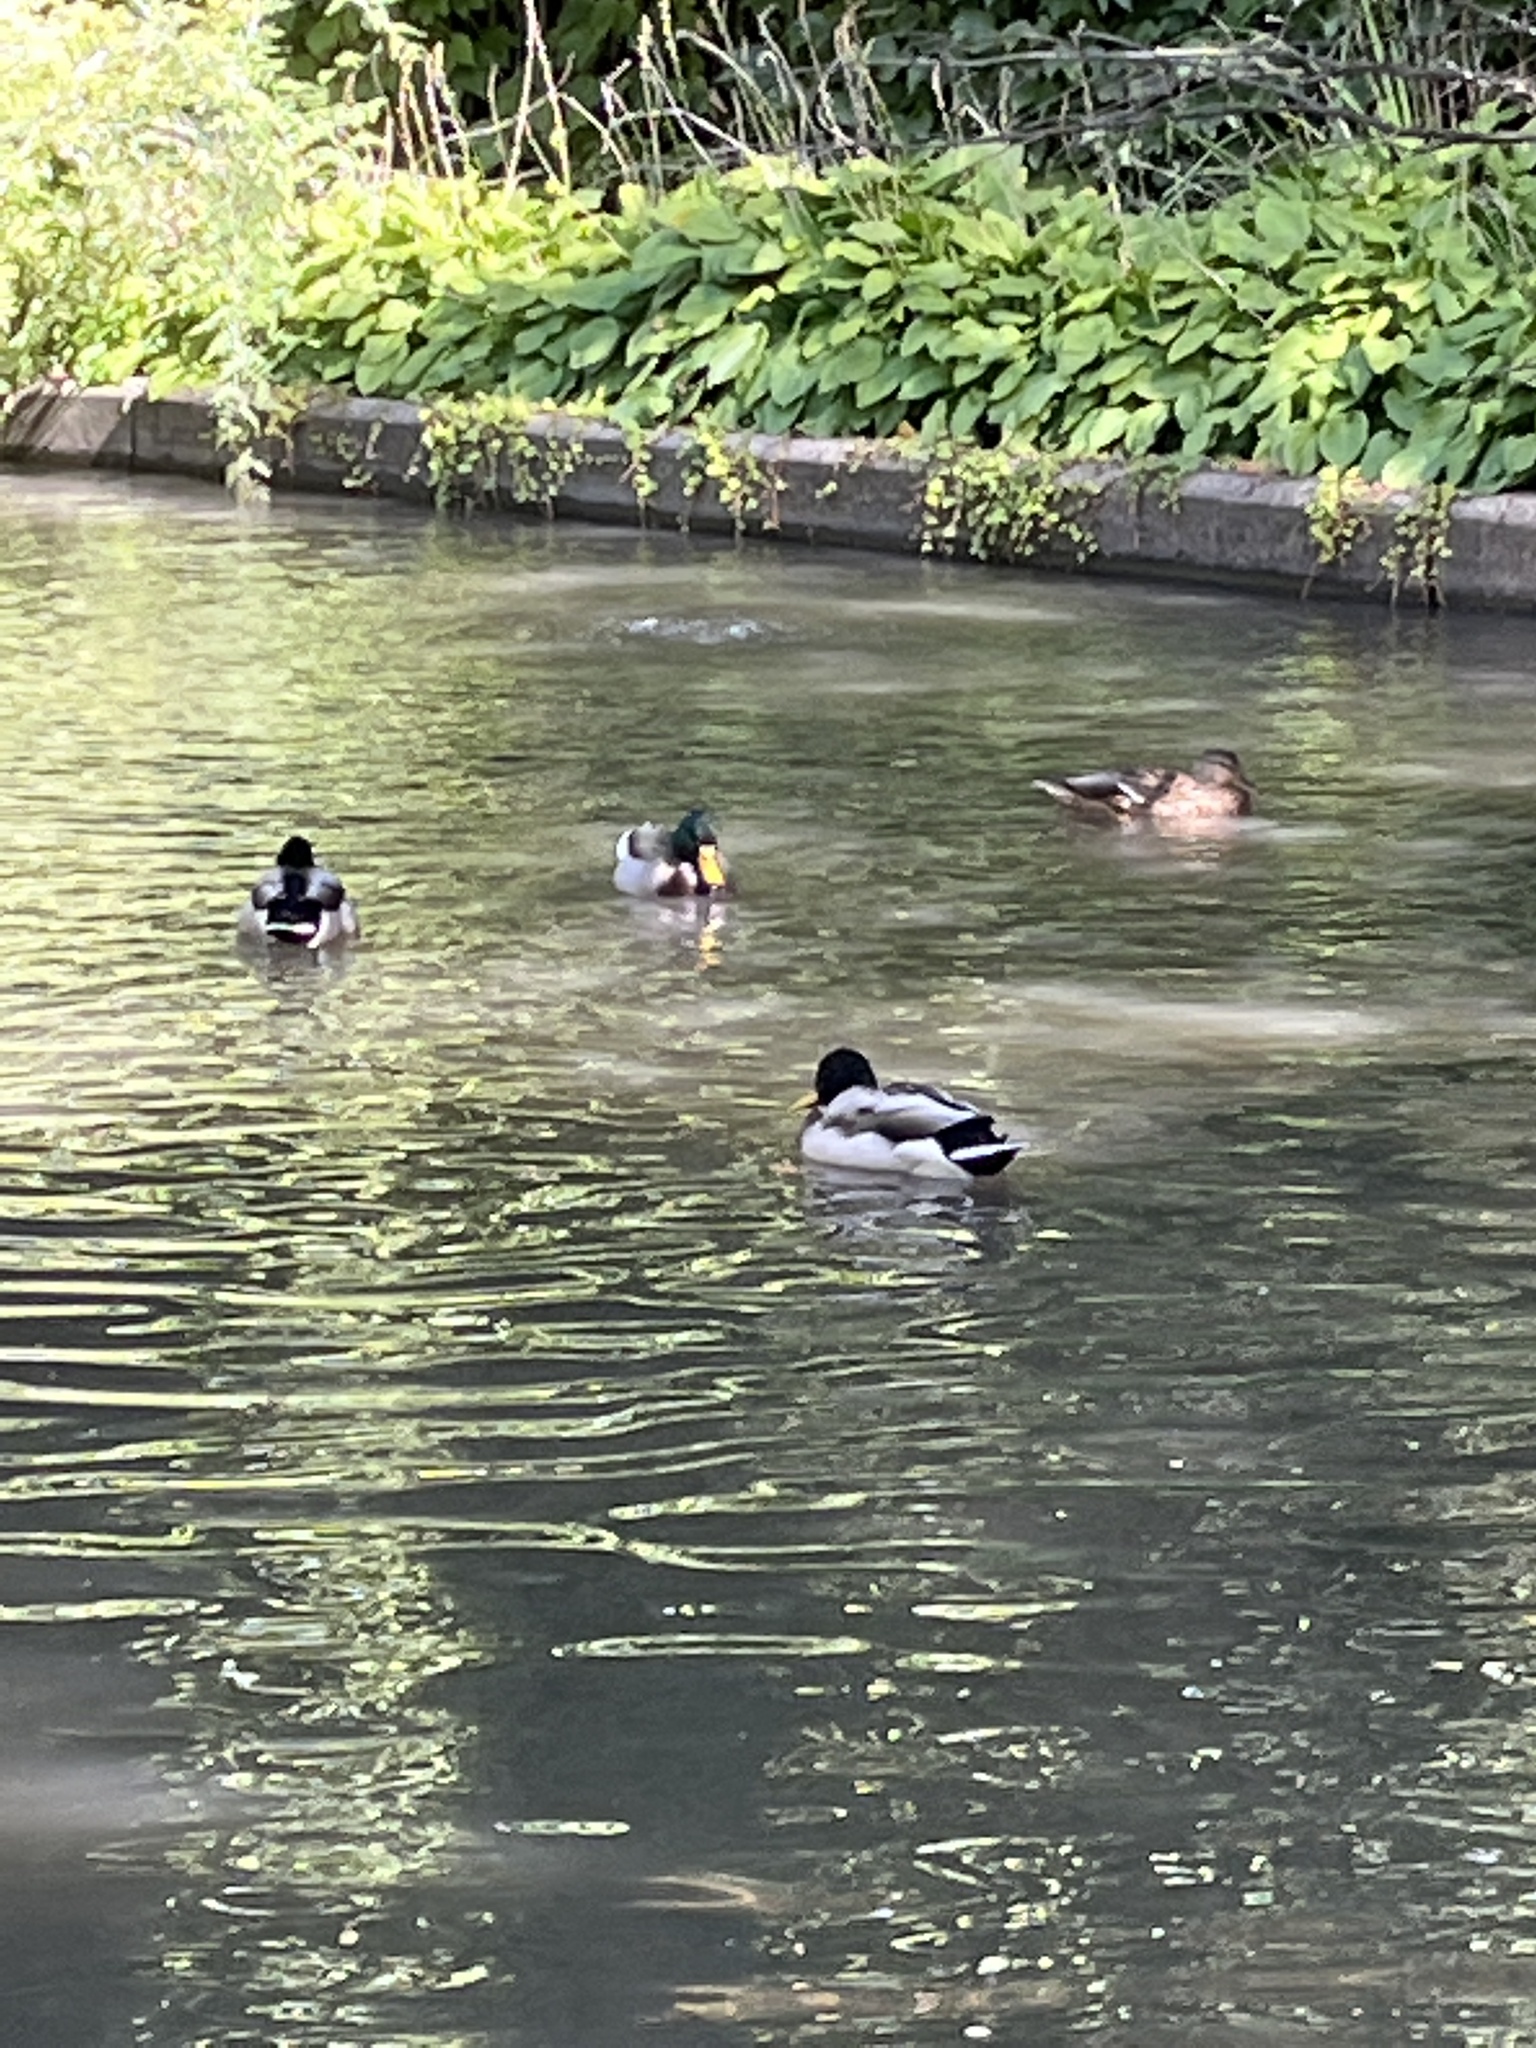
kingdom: Animalia
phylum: Chordata
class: Aves
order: Anseriformes
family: Anatidae
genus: Anas
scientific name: Anas platyrhynchos
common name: Mallard
